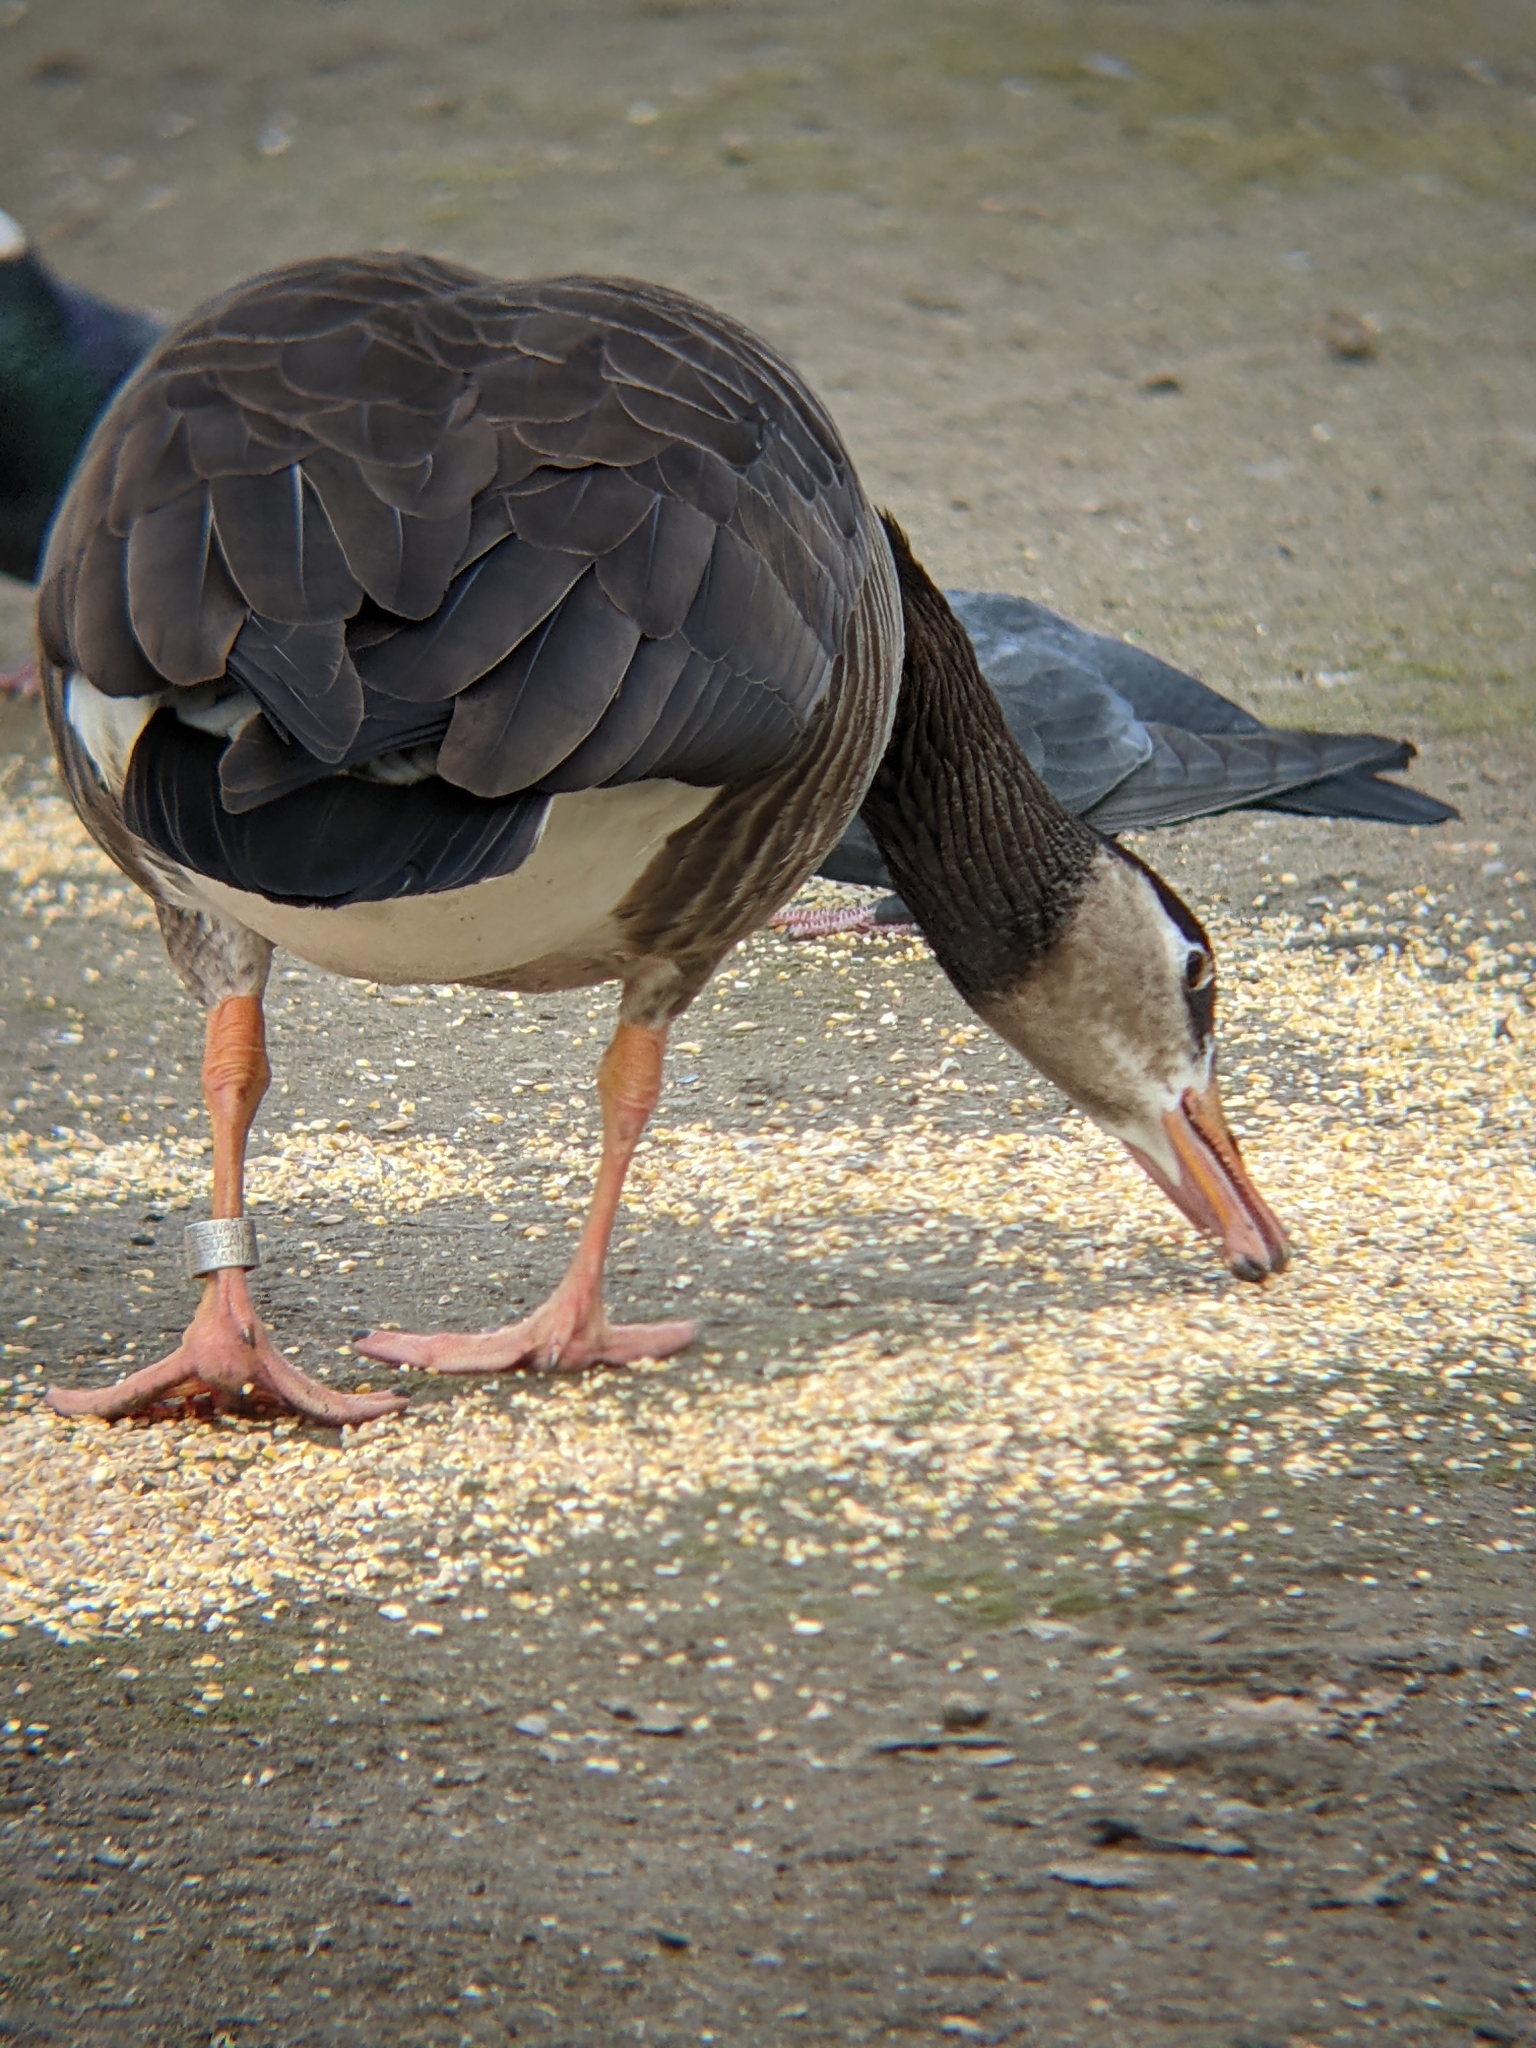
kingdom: Animalia
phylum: Chordata
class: Aves
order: Anseriformes
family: Anatidae
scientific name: Anatidae
